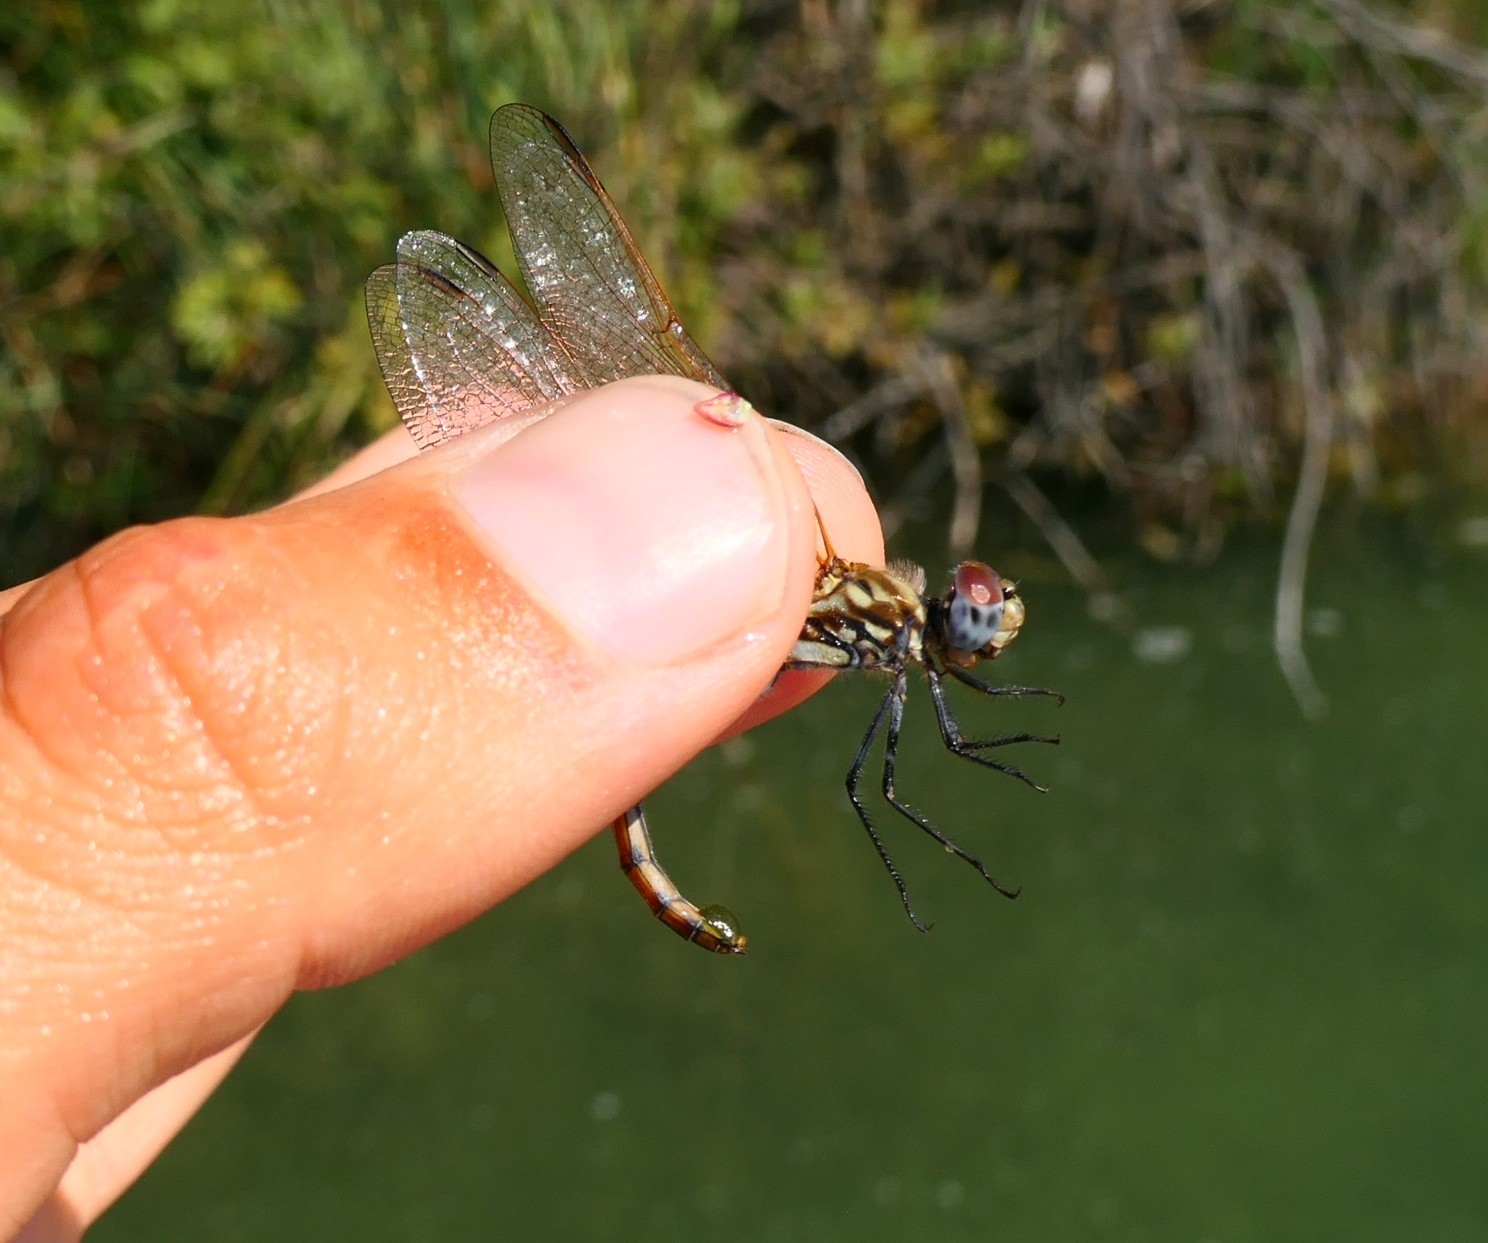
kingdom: Animalia
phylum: Arthropoda
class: Insecta
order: Odonata
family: Libellulidae
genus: Trithemis
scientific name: Trithemis annulata
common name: Violet dropwing
